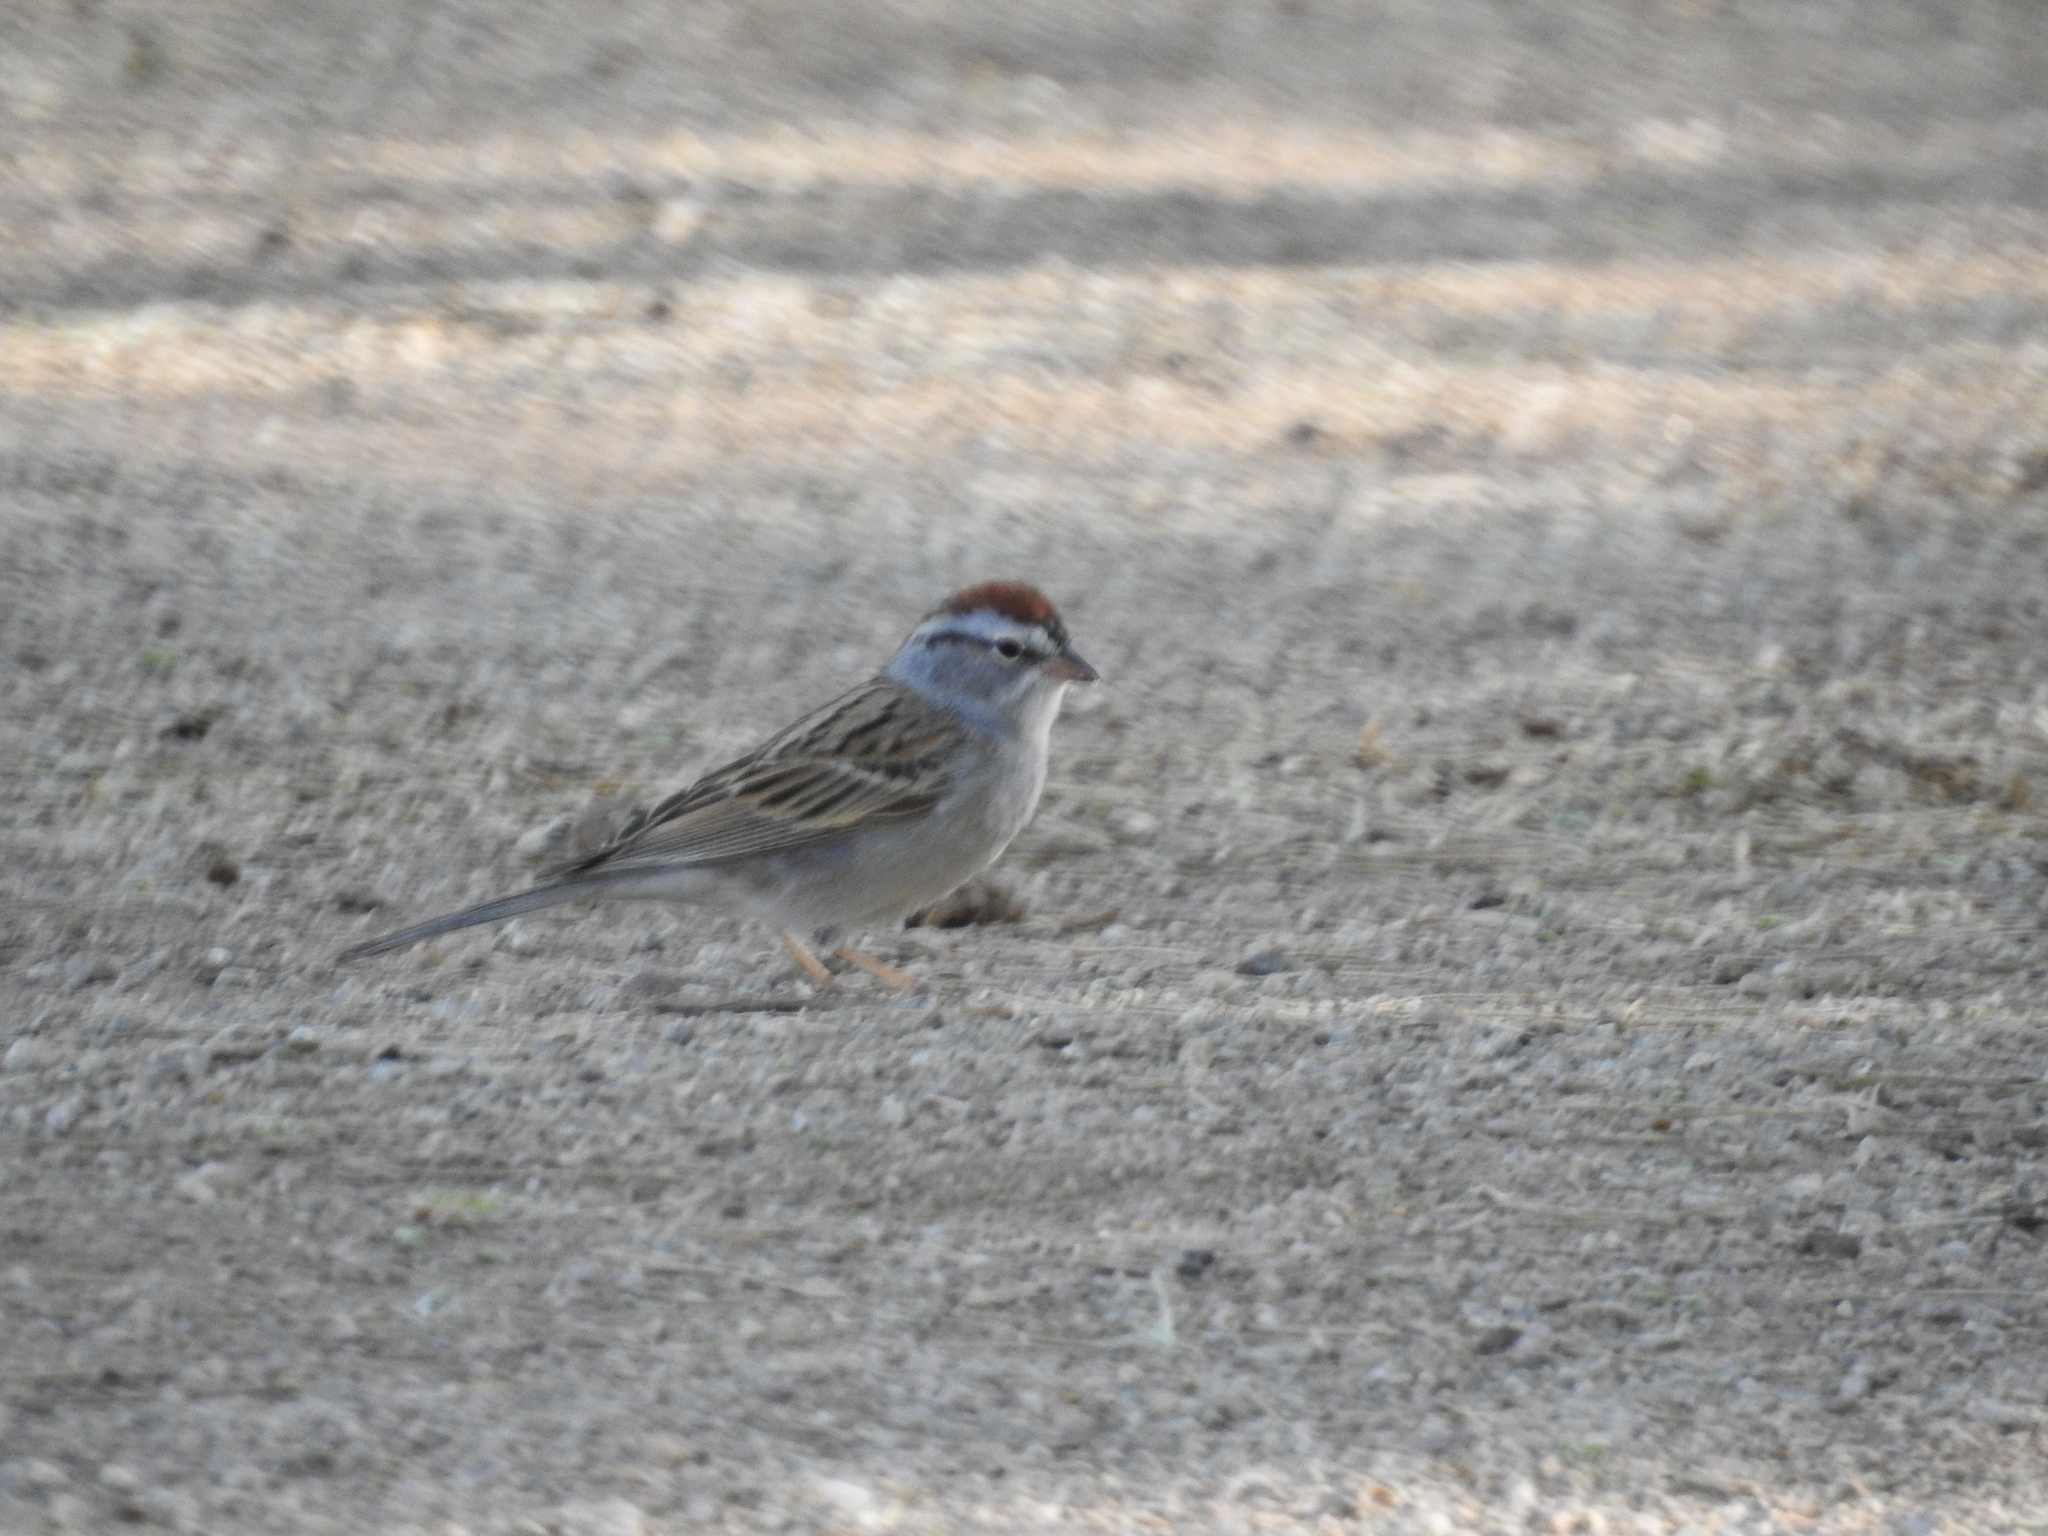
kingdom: Animalia
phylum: Chordata
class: Aves
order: Passeriformes
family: Passerellidae
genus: Spizella
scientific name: Spizella passerina
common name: Chipping sparrow
